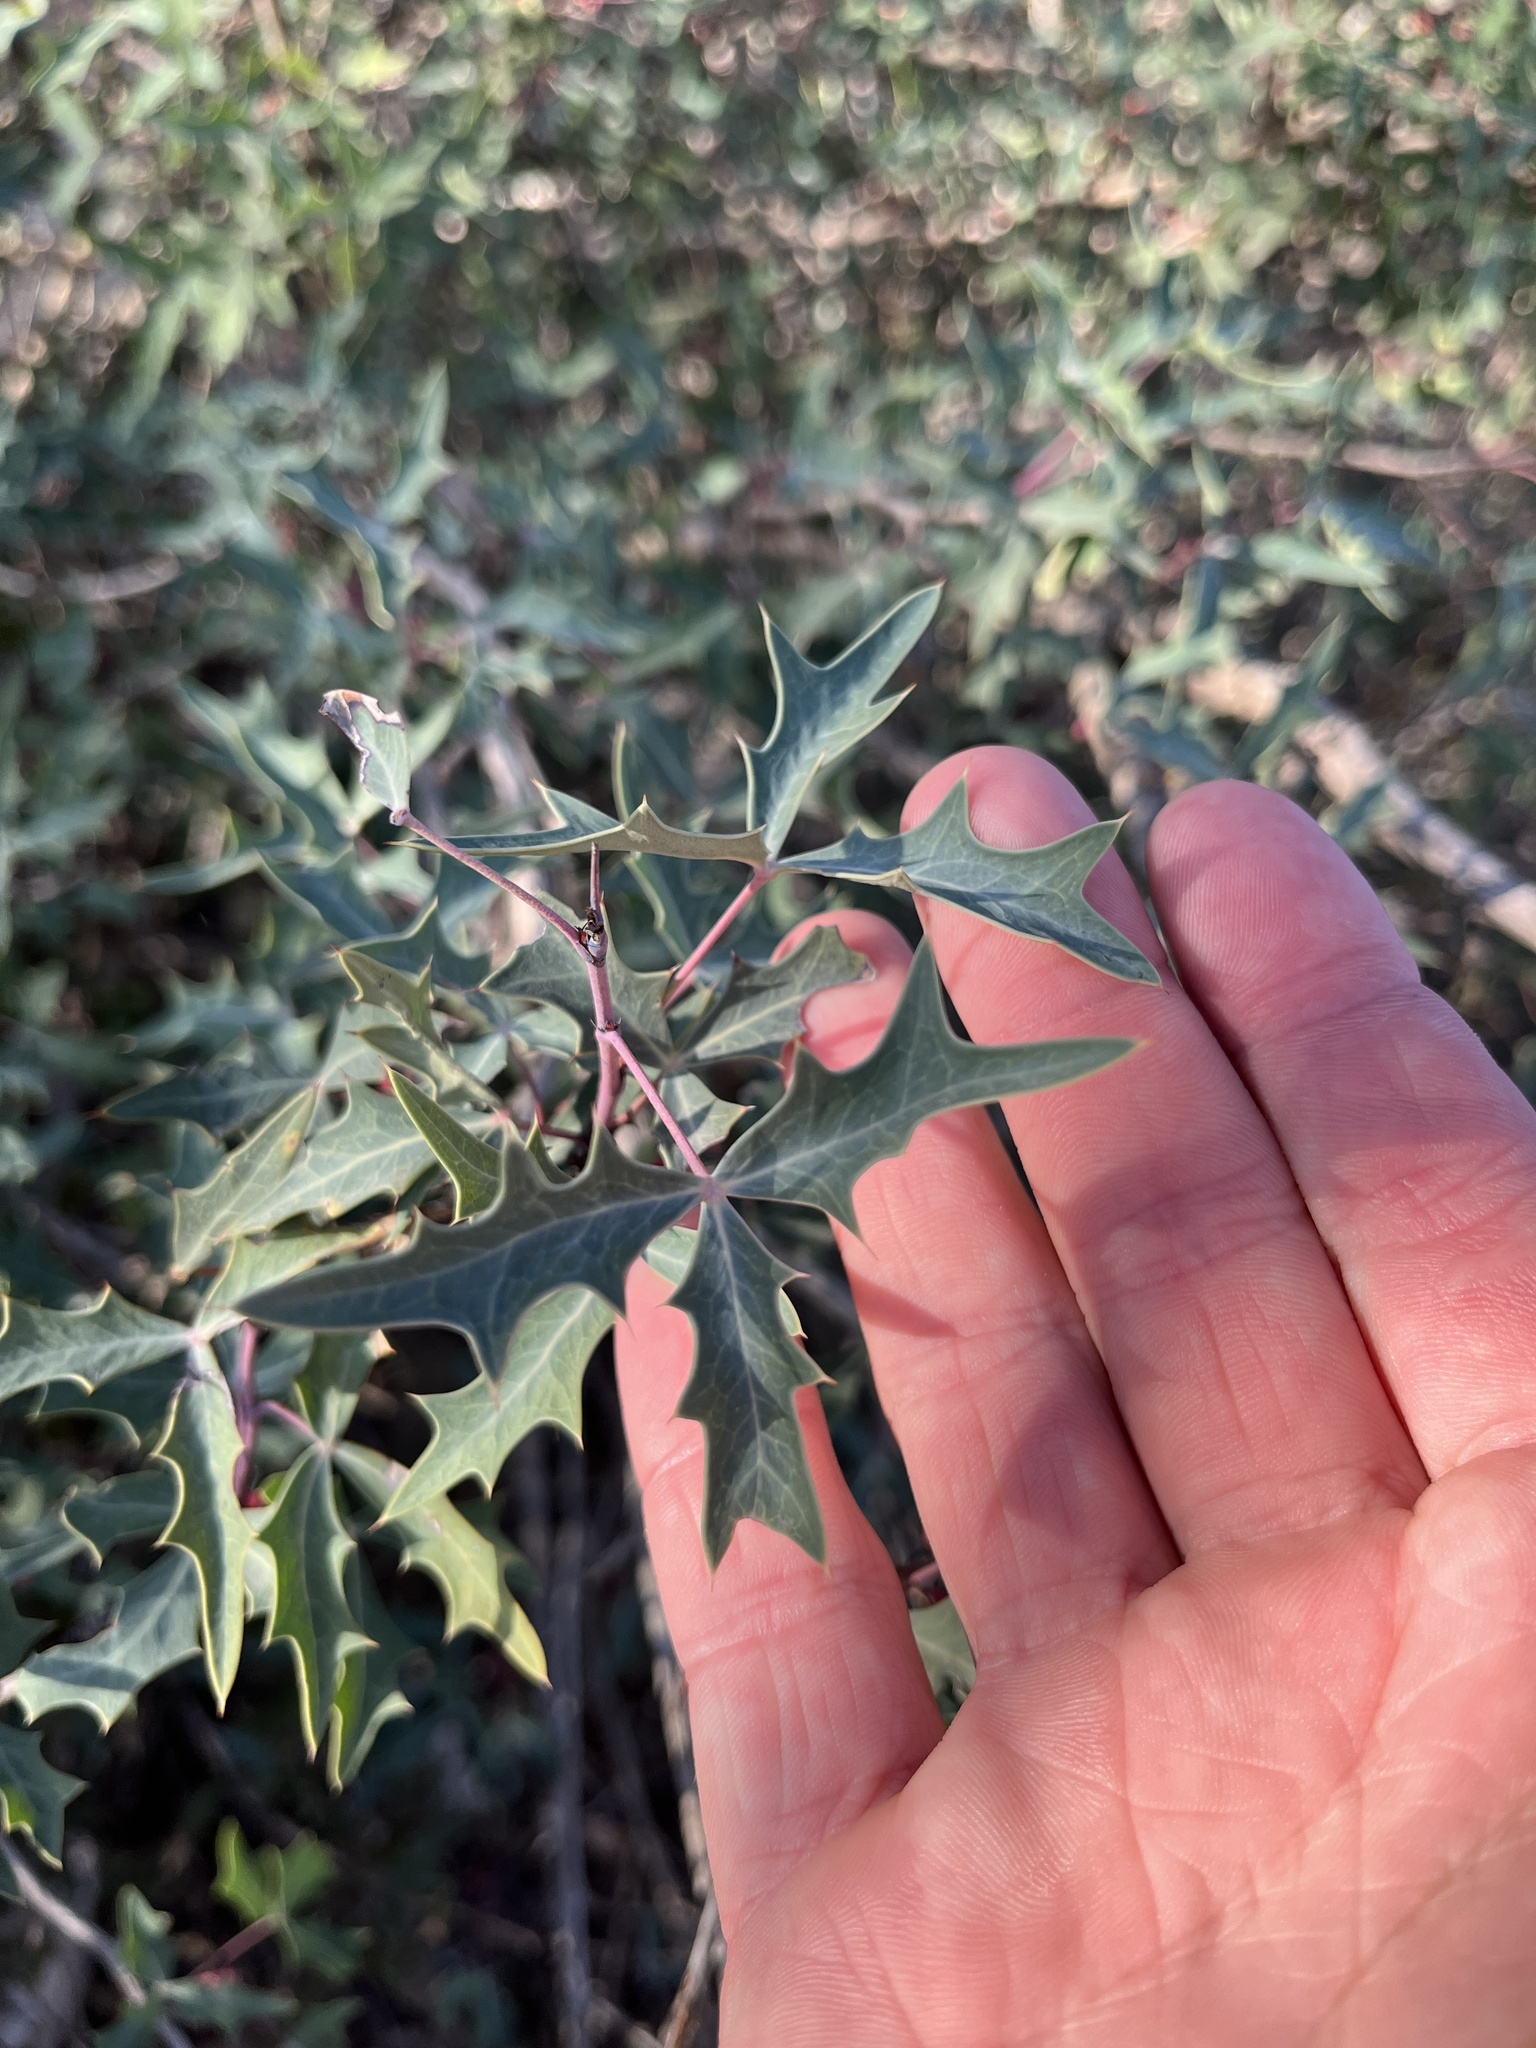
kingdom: Plantae
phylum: Tracheophyta
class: Magnoliopsida
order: Ranunculales
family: Berberidaceae
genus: Alloberberis
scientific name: Alloberberis trifoliolata
